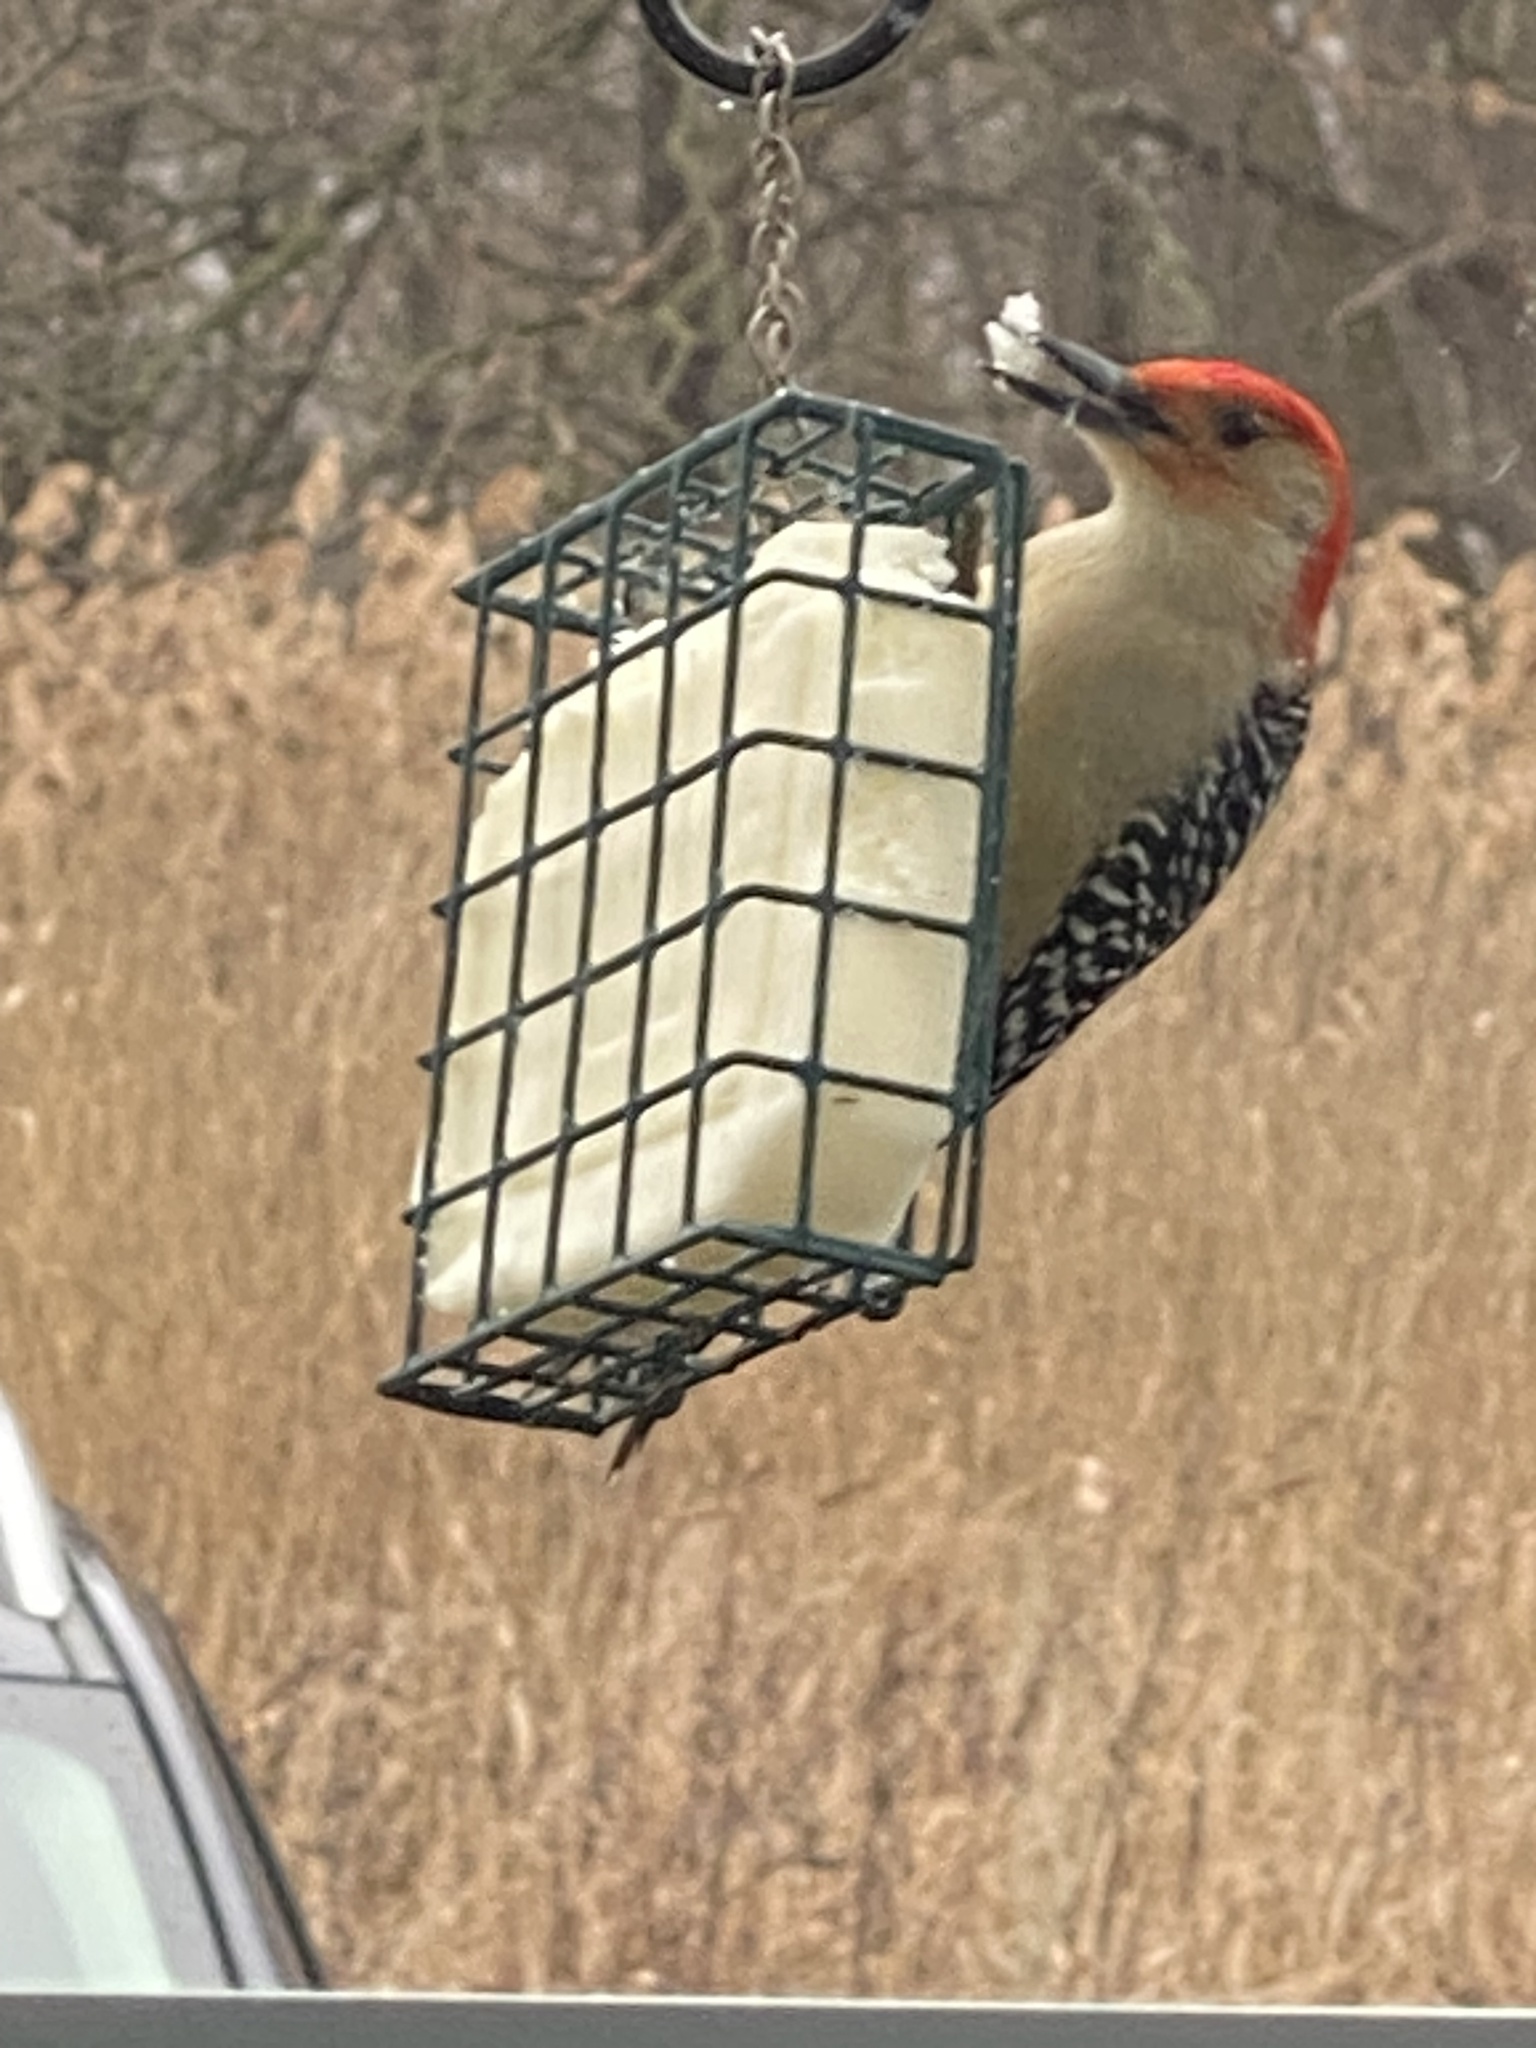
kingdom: Animalia
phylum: Chordata
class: Aves
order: Piciformes
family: Picidae
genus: Melanerpes
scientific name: Melanerpes carolinus
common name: Red-bellied woodpecker
